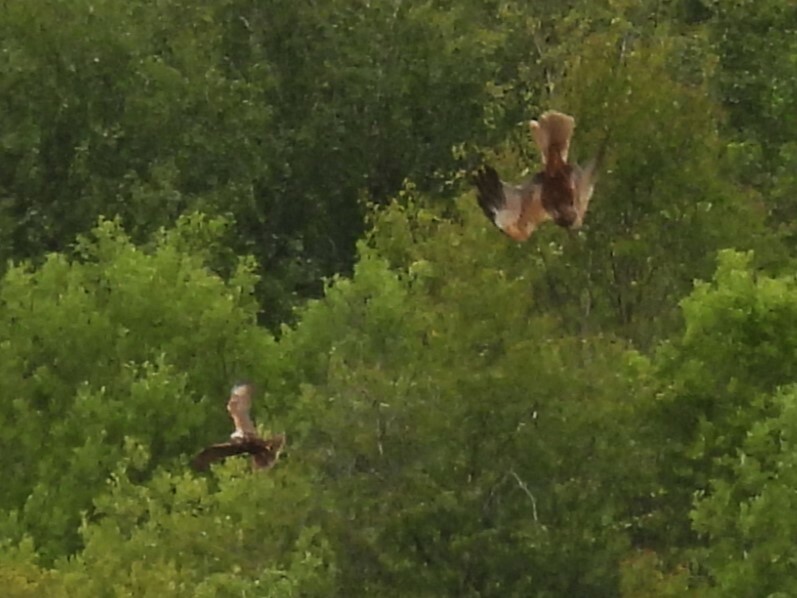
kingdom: Animalia
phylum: Chordata
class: Aves
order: Accipitriformes
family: Accipitridae
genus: Circus
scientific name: Circus aeruginosus
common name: Western marsh harrier
